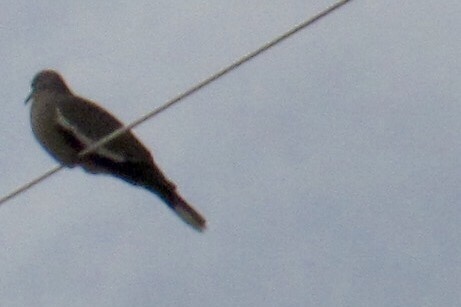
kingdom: Animalia
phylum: Chordata
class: Aves
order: Columbiformes
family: Columbidae
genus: Zenaida
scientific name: Zenaida asiatica
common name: White-winged dove
